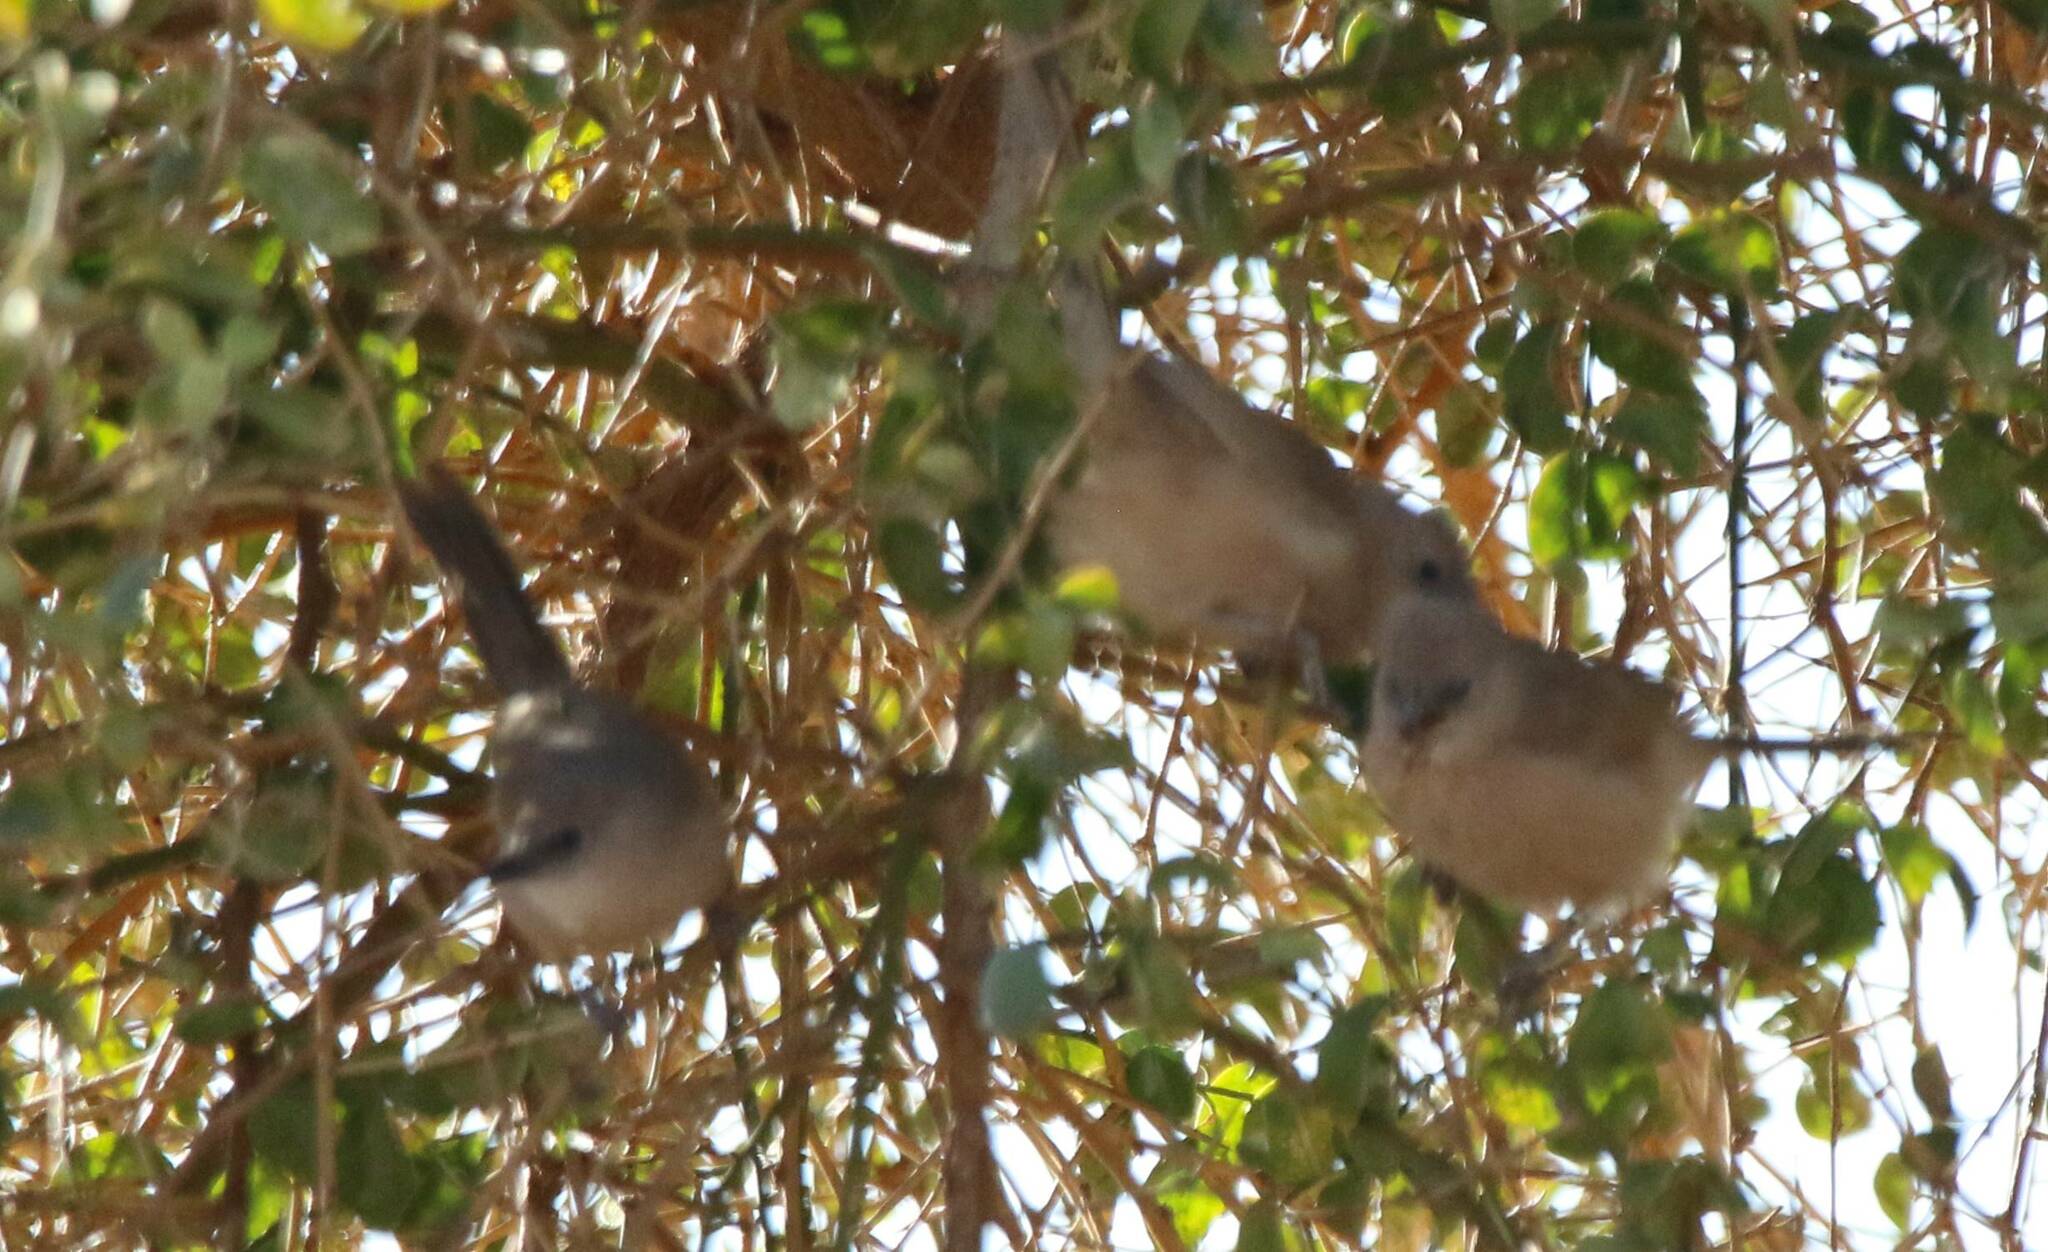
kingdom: Animalia
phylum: Chordata
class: Aves
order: Passeriformes
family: Leiothrichidae
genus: Turdoides
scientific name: Turdoides fulva
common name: Fulvous babbler
